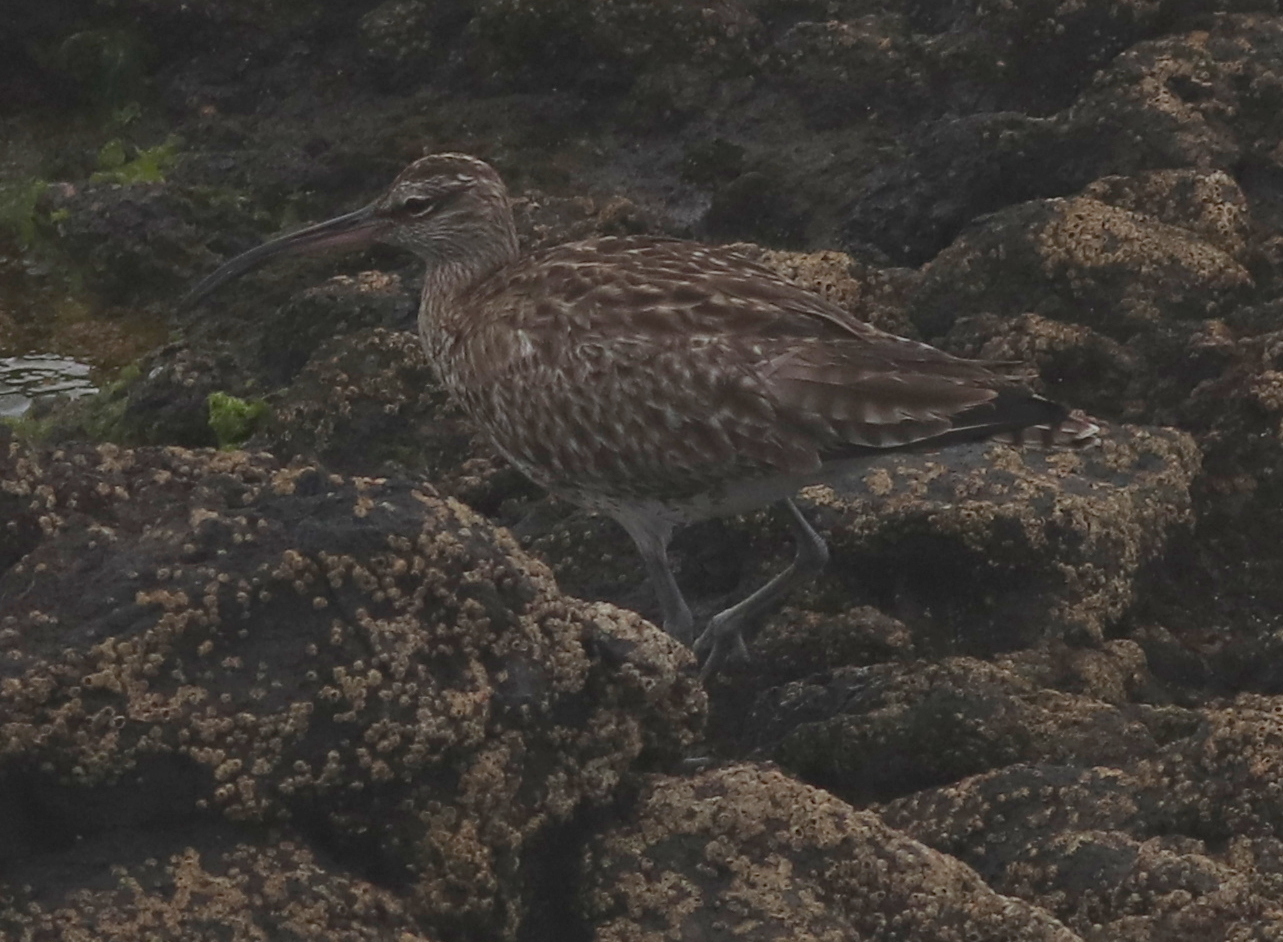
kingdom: Animalia
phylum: Chordata
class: Aves
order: Charadriiformes
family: Scolopacidae
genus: Numenius
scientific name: Numenius phaeopus
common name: Whimbrel
